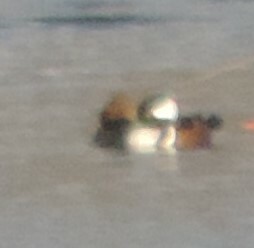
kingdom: Animalia
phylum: Chordata
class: Aves
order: Anseriformes
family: Anatidae
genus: Lophodytes
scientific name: Lophodytes cucullatus
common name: Hooded merganser
